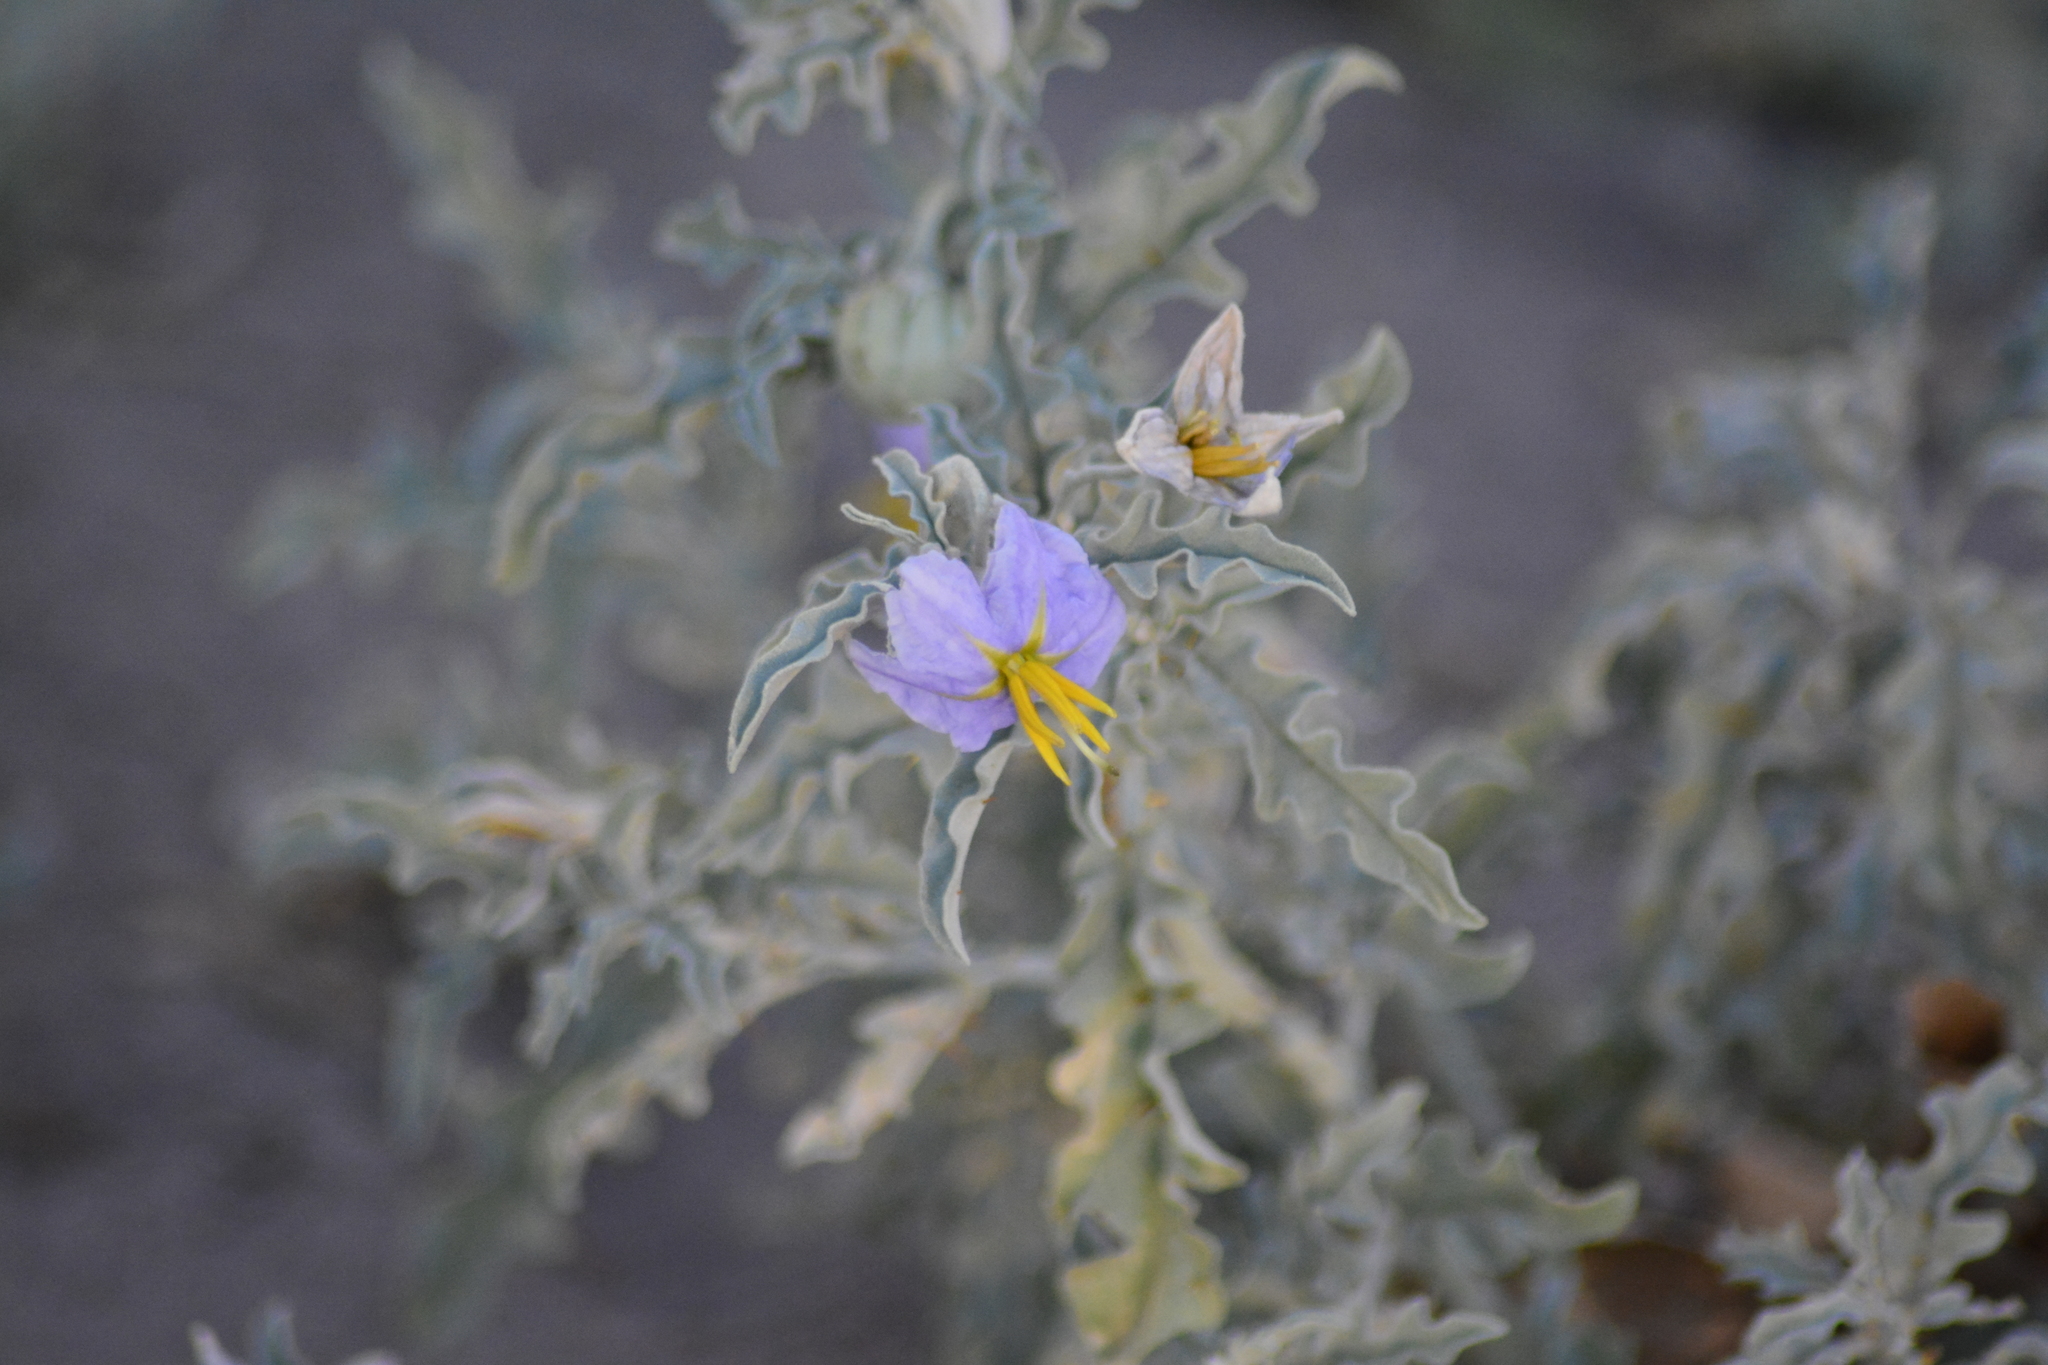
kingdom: Plantae
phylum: Tracheophyta
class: Magnoliopsida
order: Solanales
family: Solanaceae
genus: Solanum
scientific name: Solanum elaeagnifolium
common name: Silverleaf nightshade
